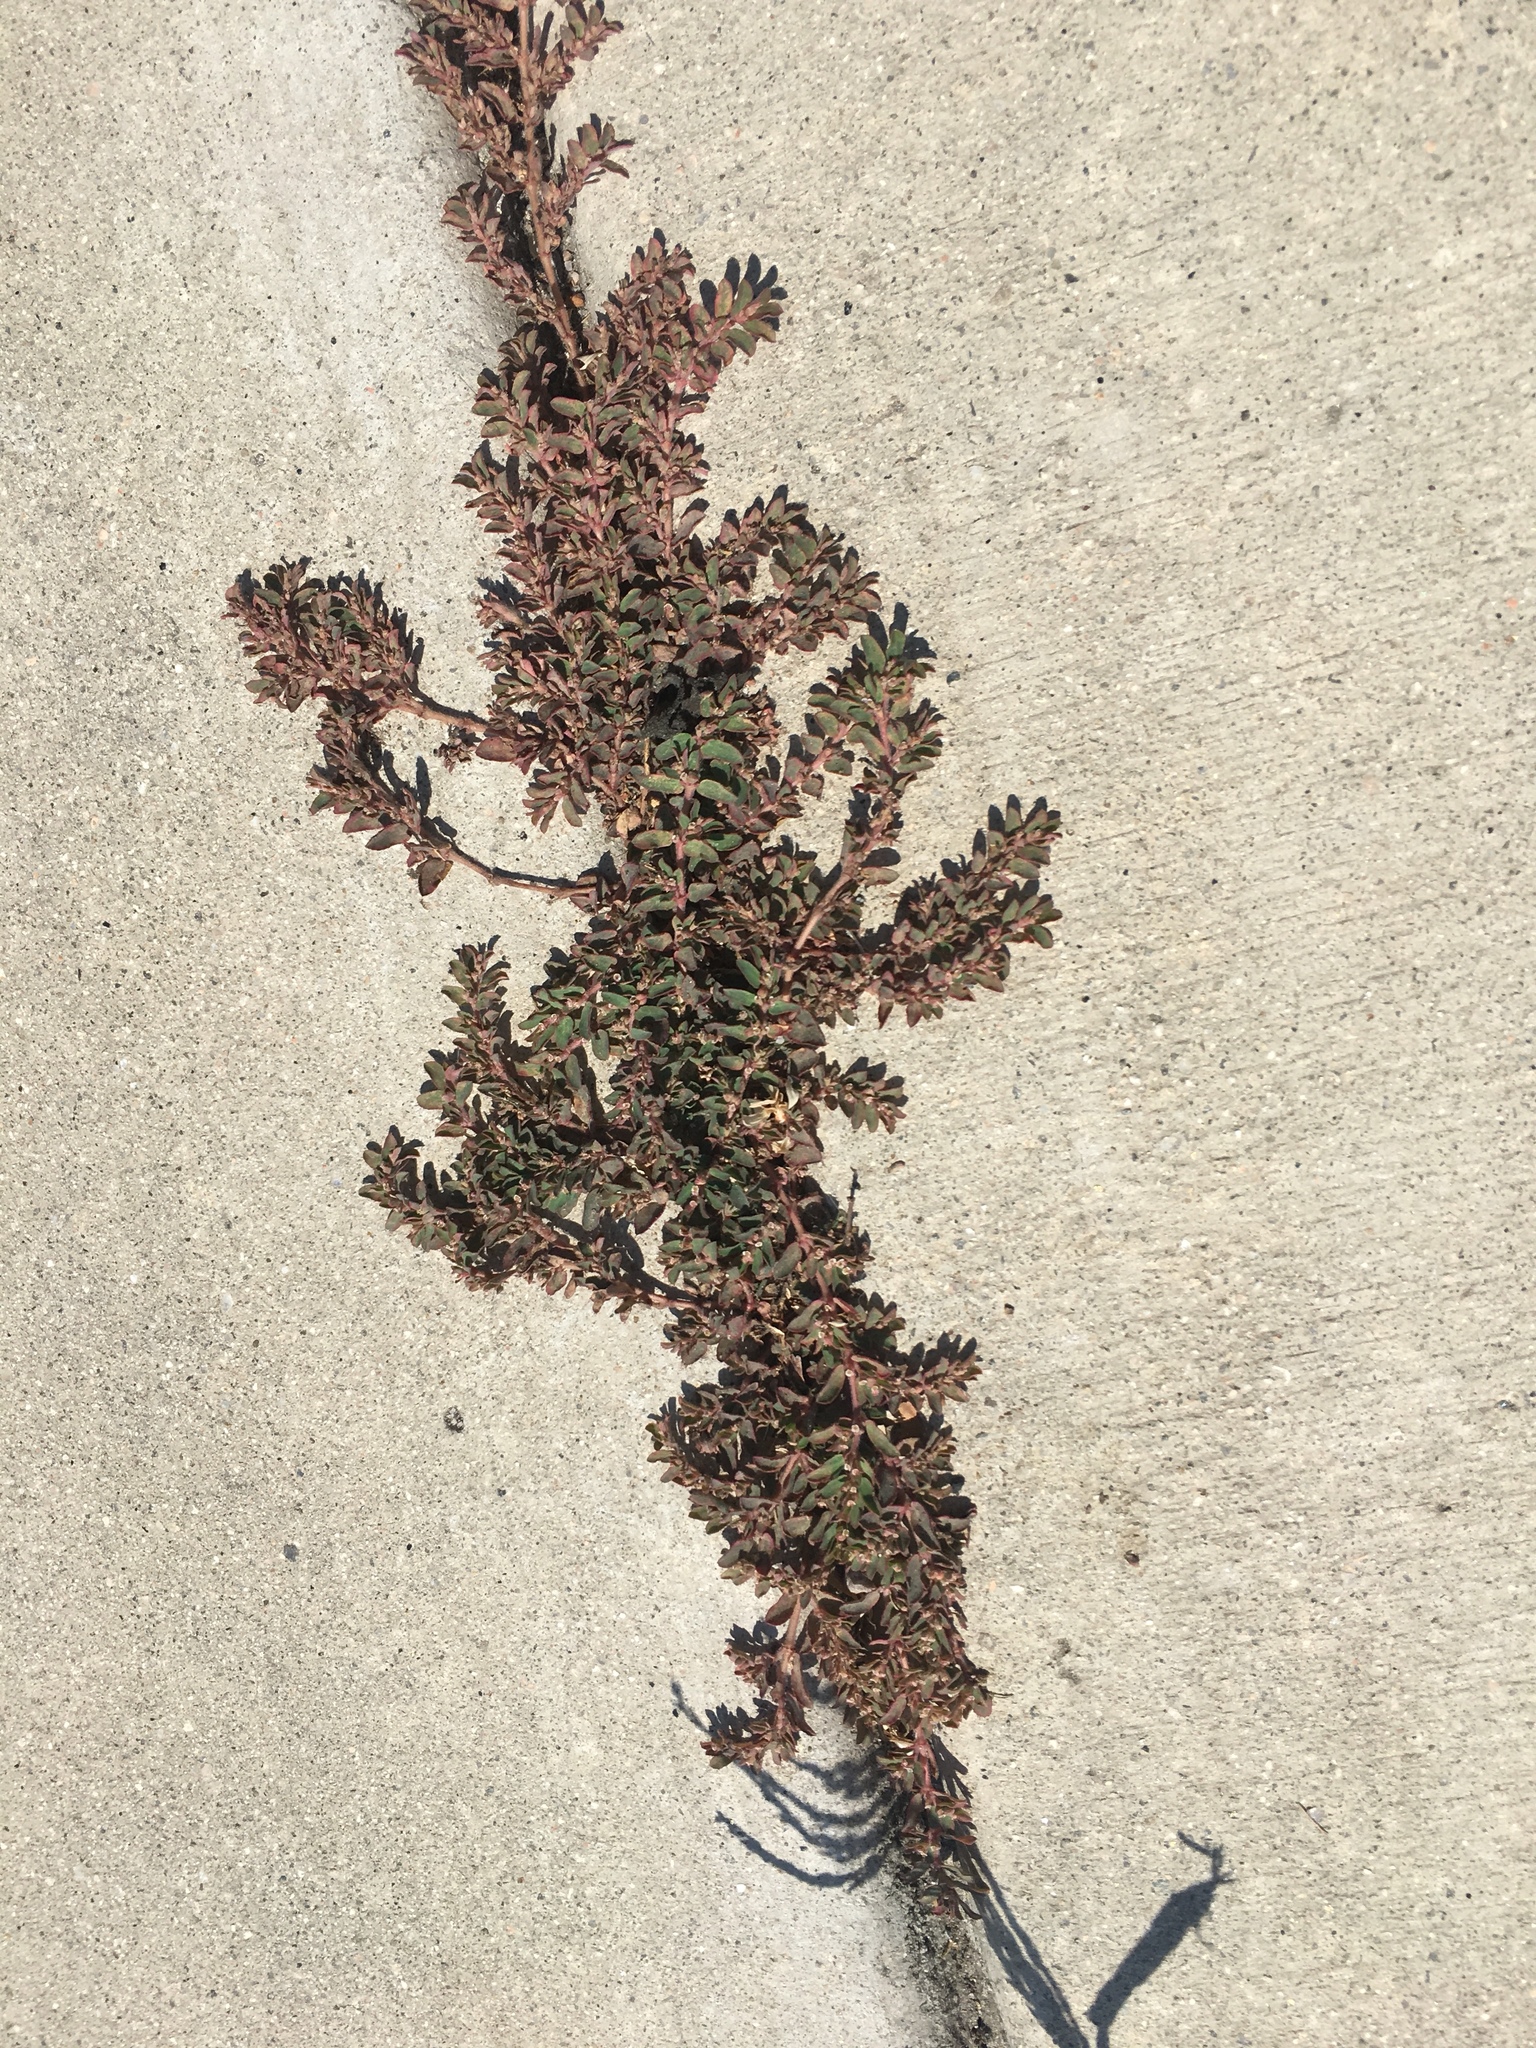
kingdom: Plantae
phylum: Tracheophyta
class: Magnoliopsida
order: Malpighiales
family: Euphorbiaceae
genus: Euphorbia
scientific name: Euphorbia maculata
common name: Spotted spurge
